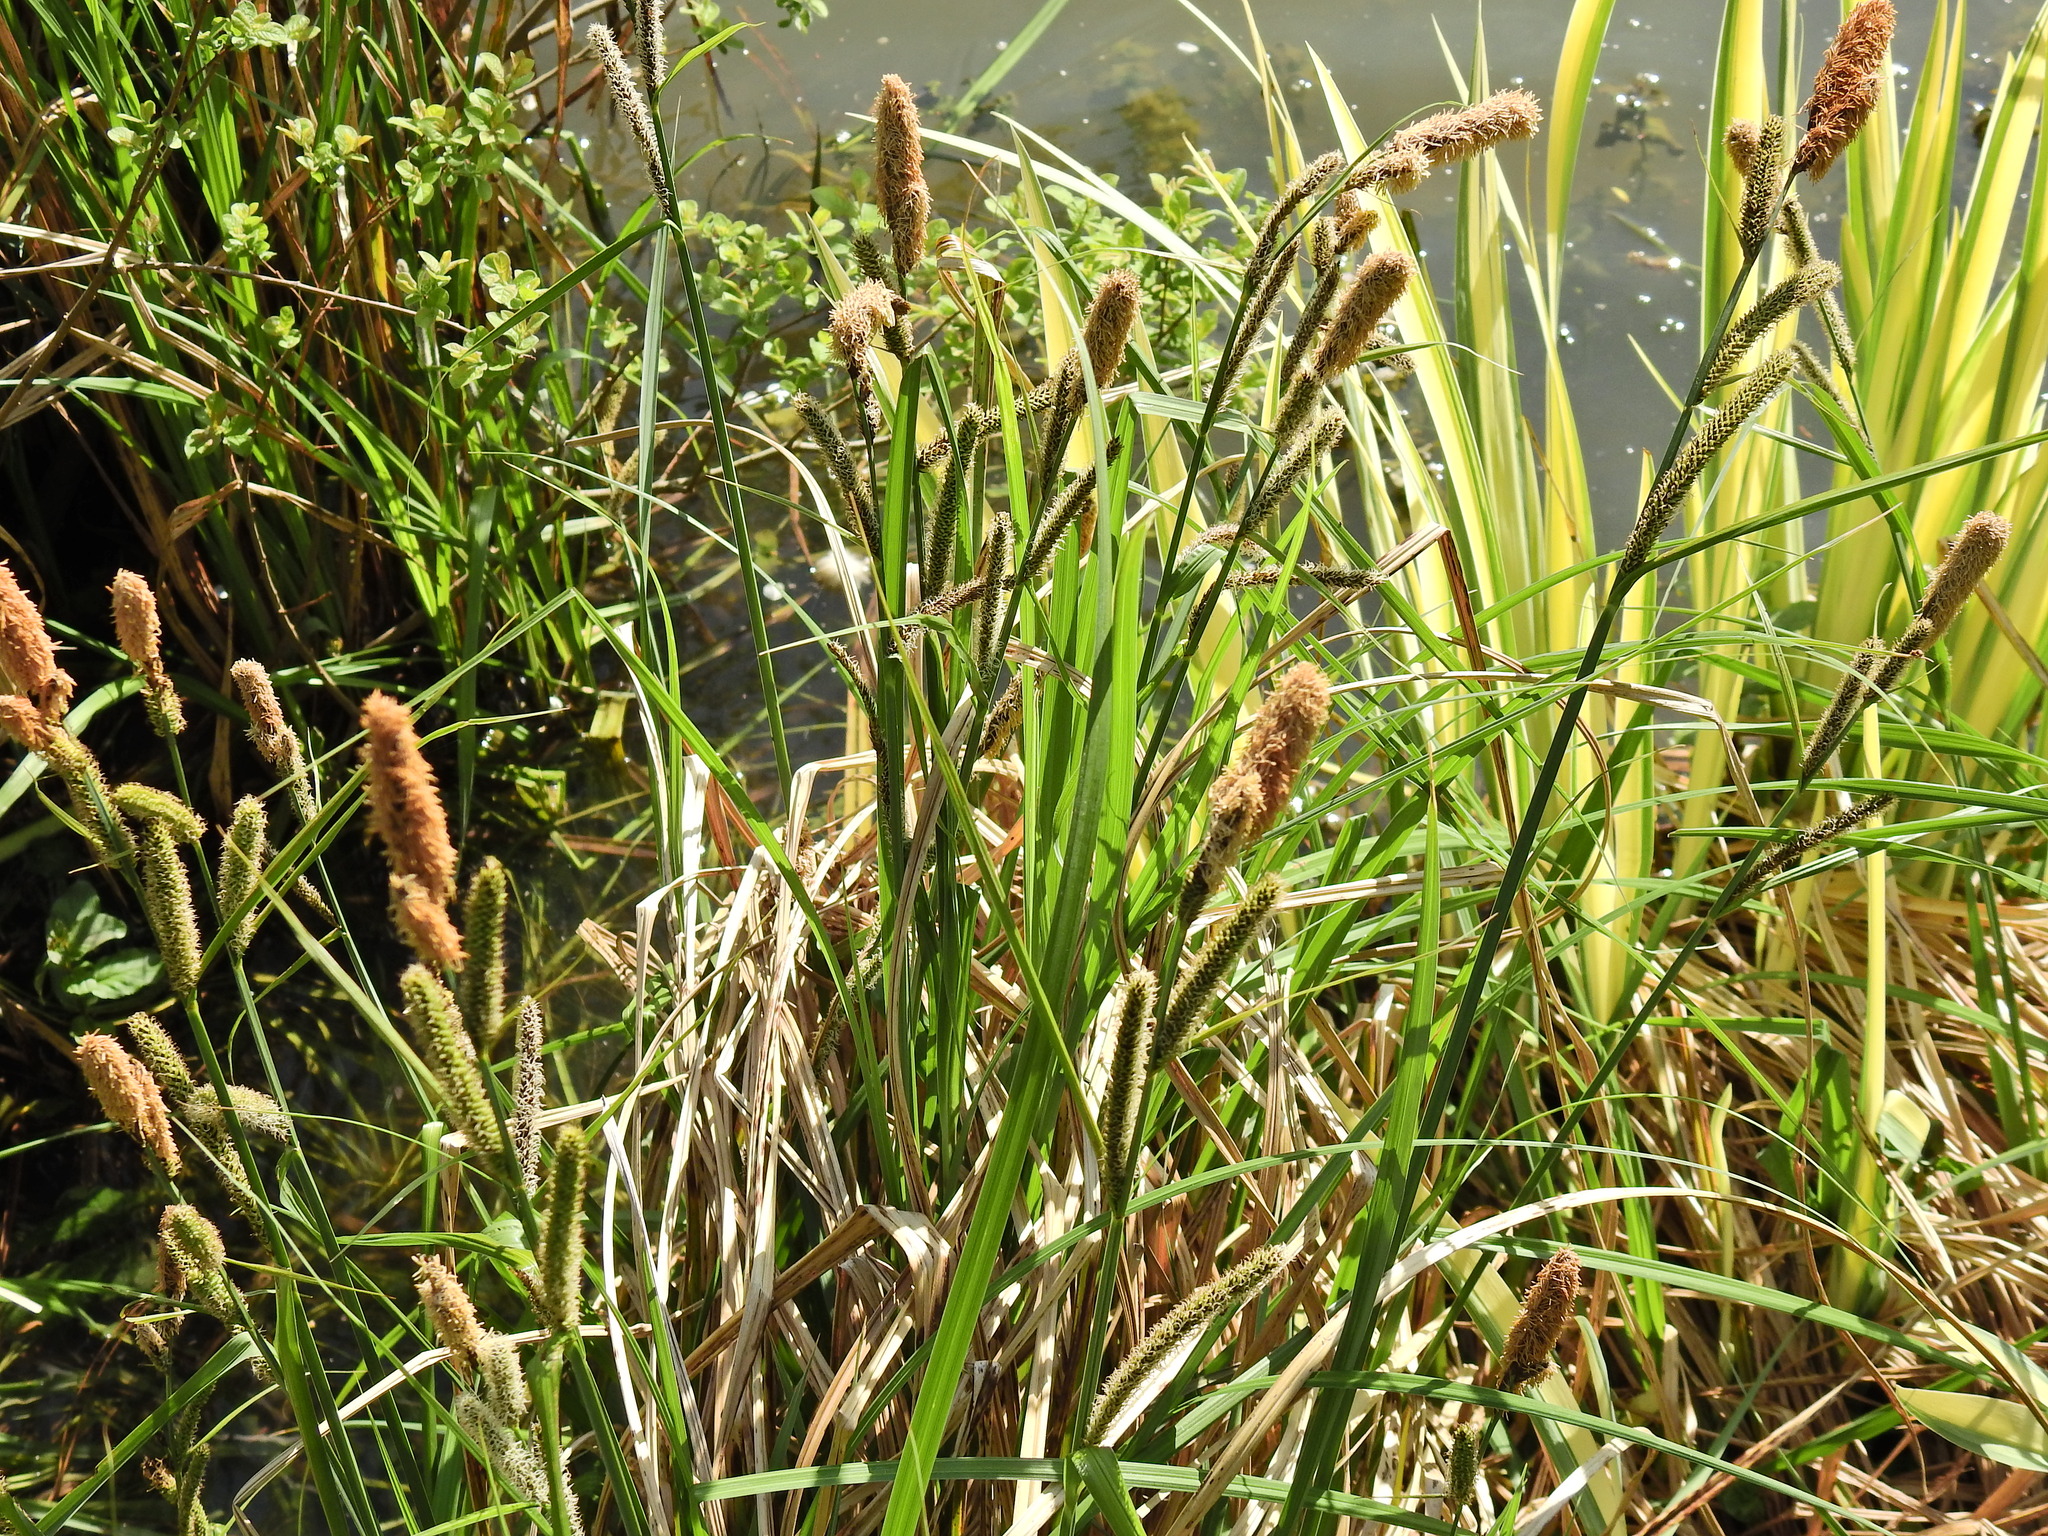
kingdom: Plantae
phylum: Tracheophyta
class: Liliopsida
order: Poales
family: Cyperaceae
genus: Carex
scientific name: Carex acutiformis
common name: Lesser pond-sedge
